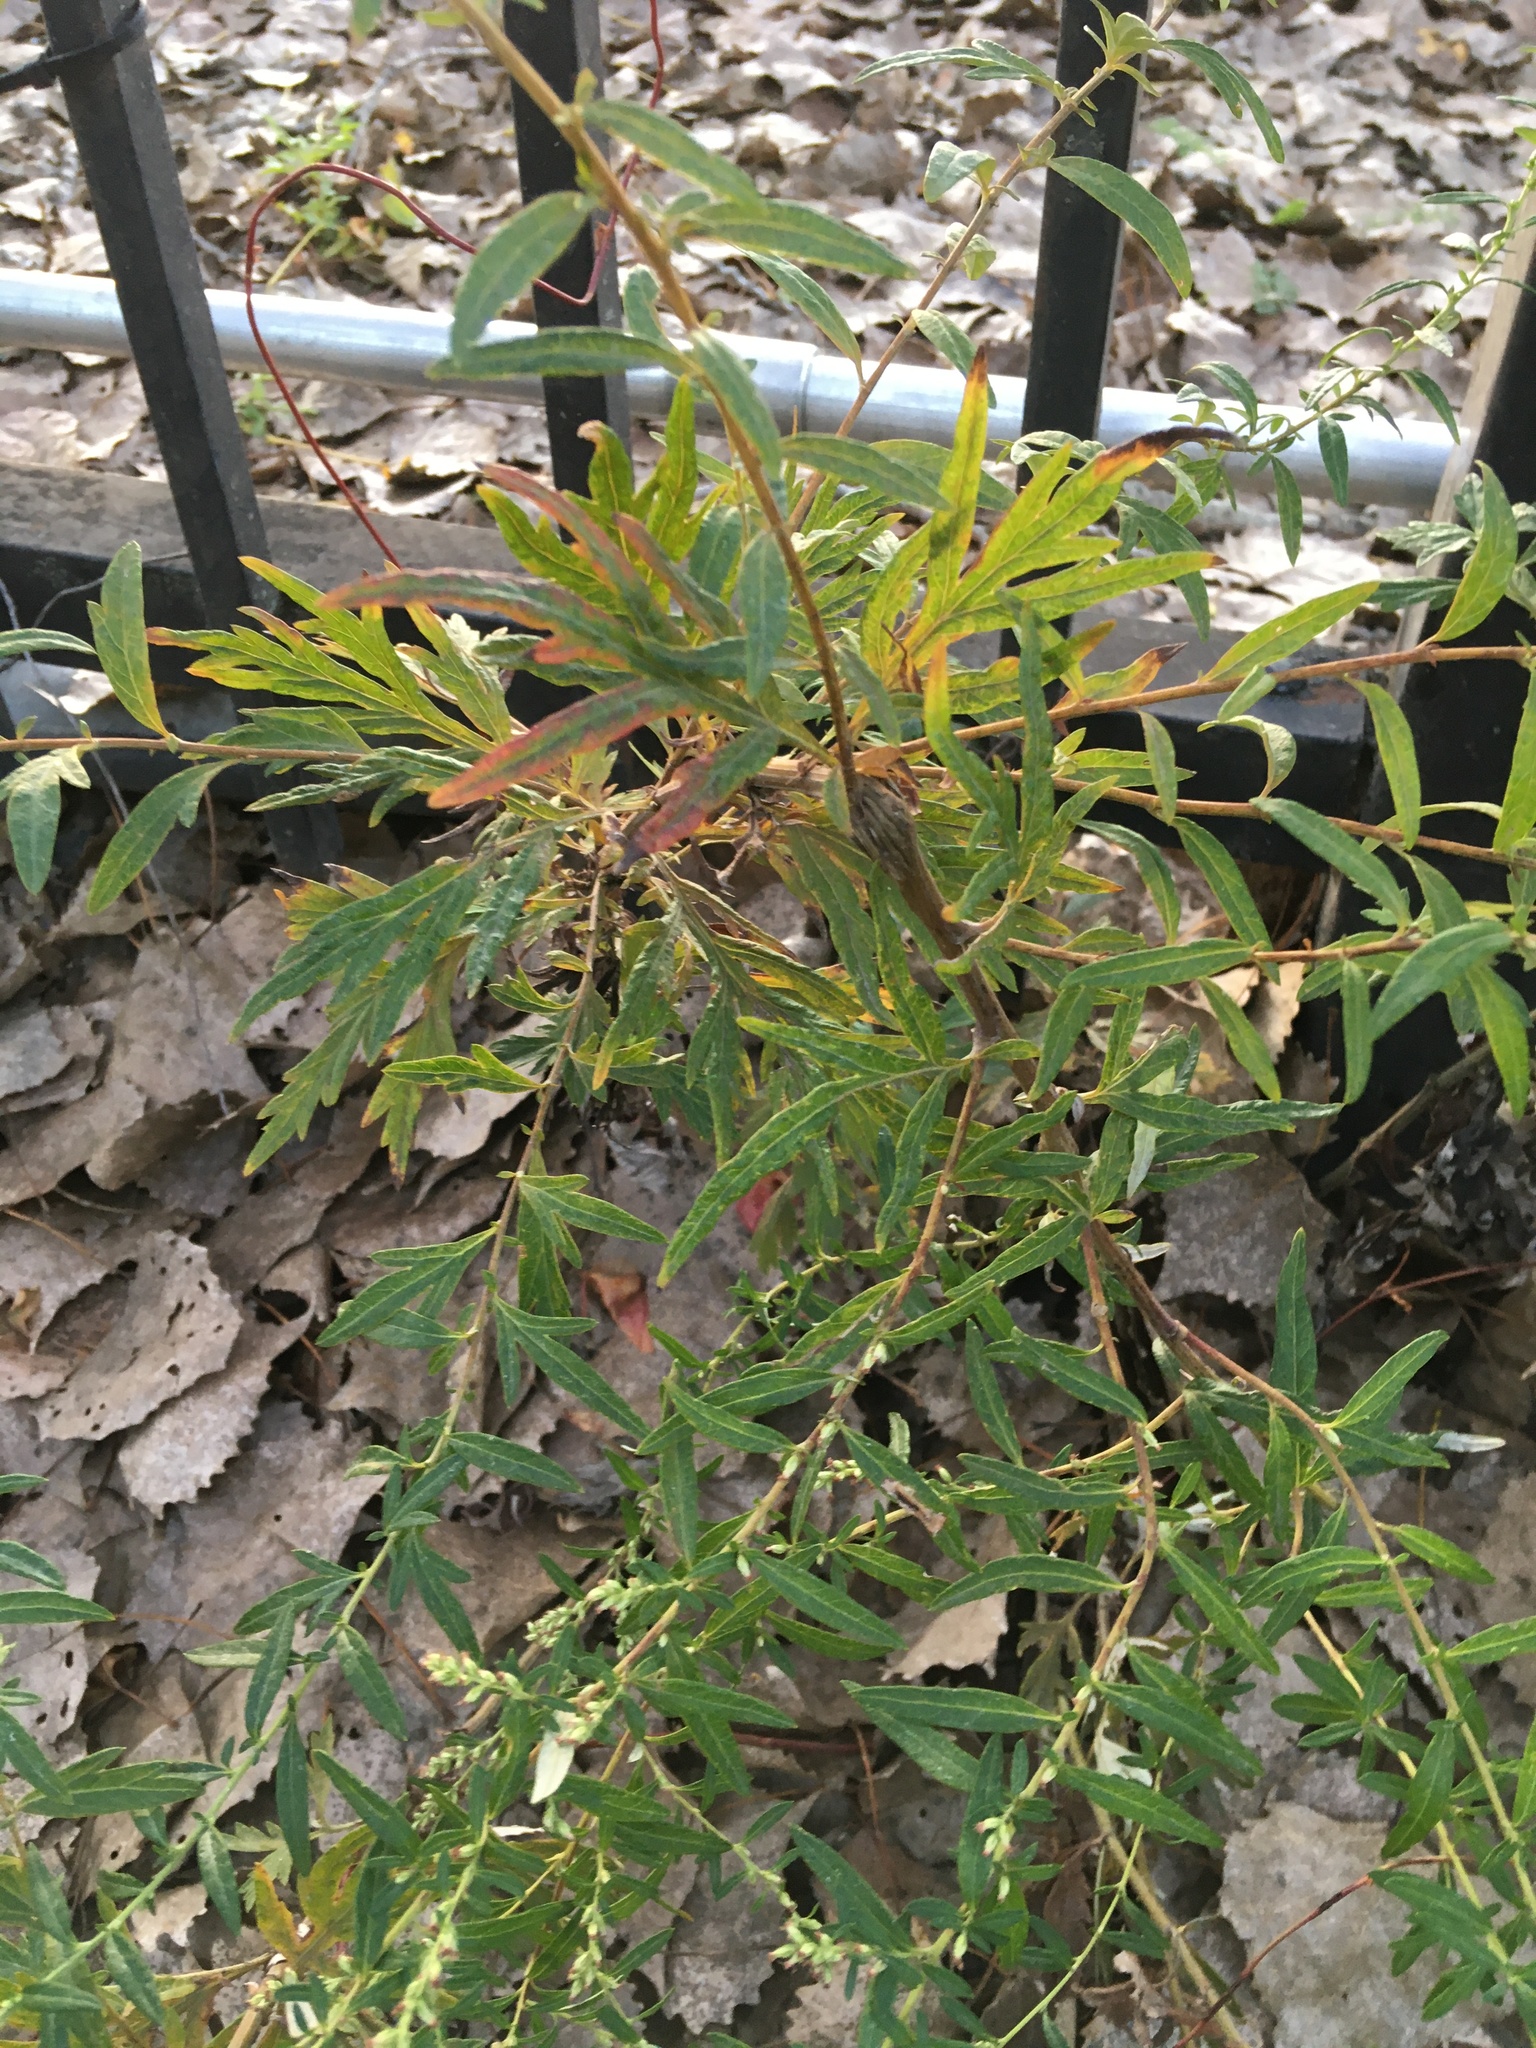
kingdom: Plantae
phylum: Tracheophyta
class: Magnoliopsida
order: Asterales
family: Asteraceae
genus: Artemisia
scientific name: Artemisia vulgaris
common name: Mugwort
